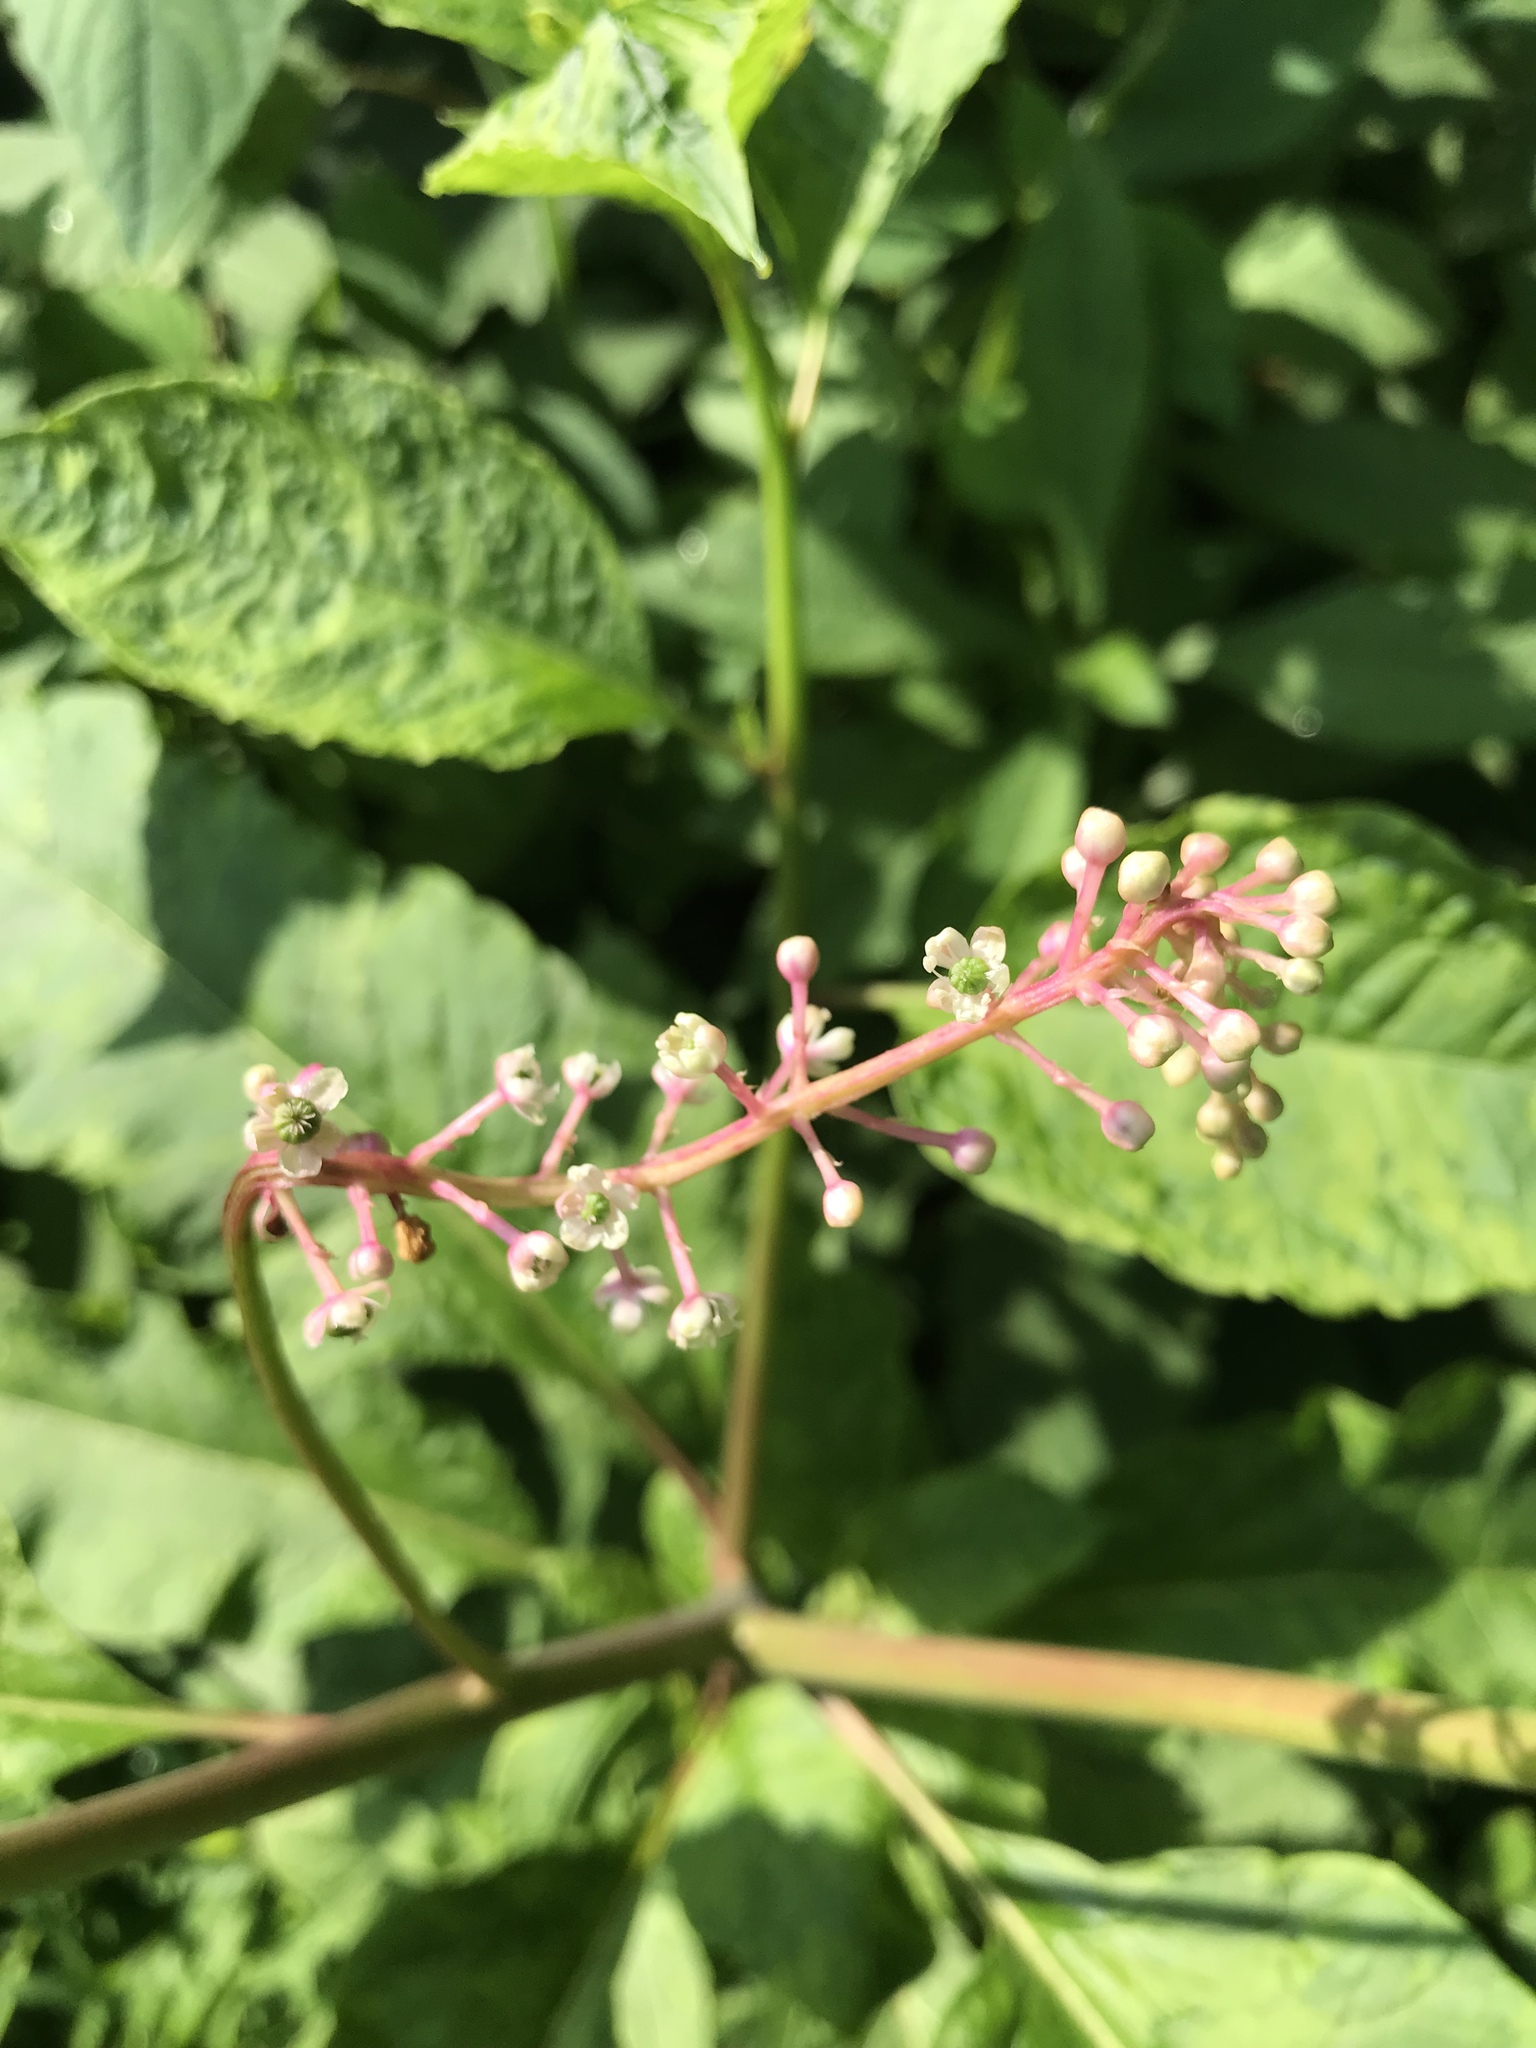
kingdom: Plantae
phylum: Tracheophyta
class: Magnoliopsida
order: Caryophyllales
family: Phytolaccaceae
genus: Phytolacca
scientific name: Phytolacca americana
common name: American pokeweed
